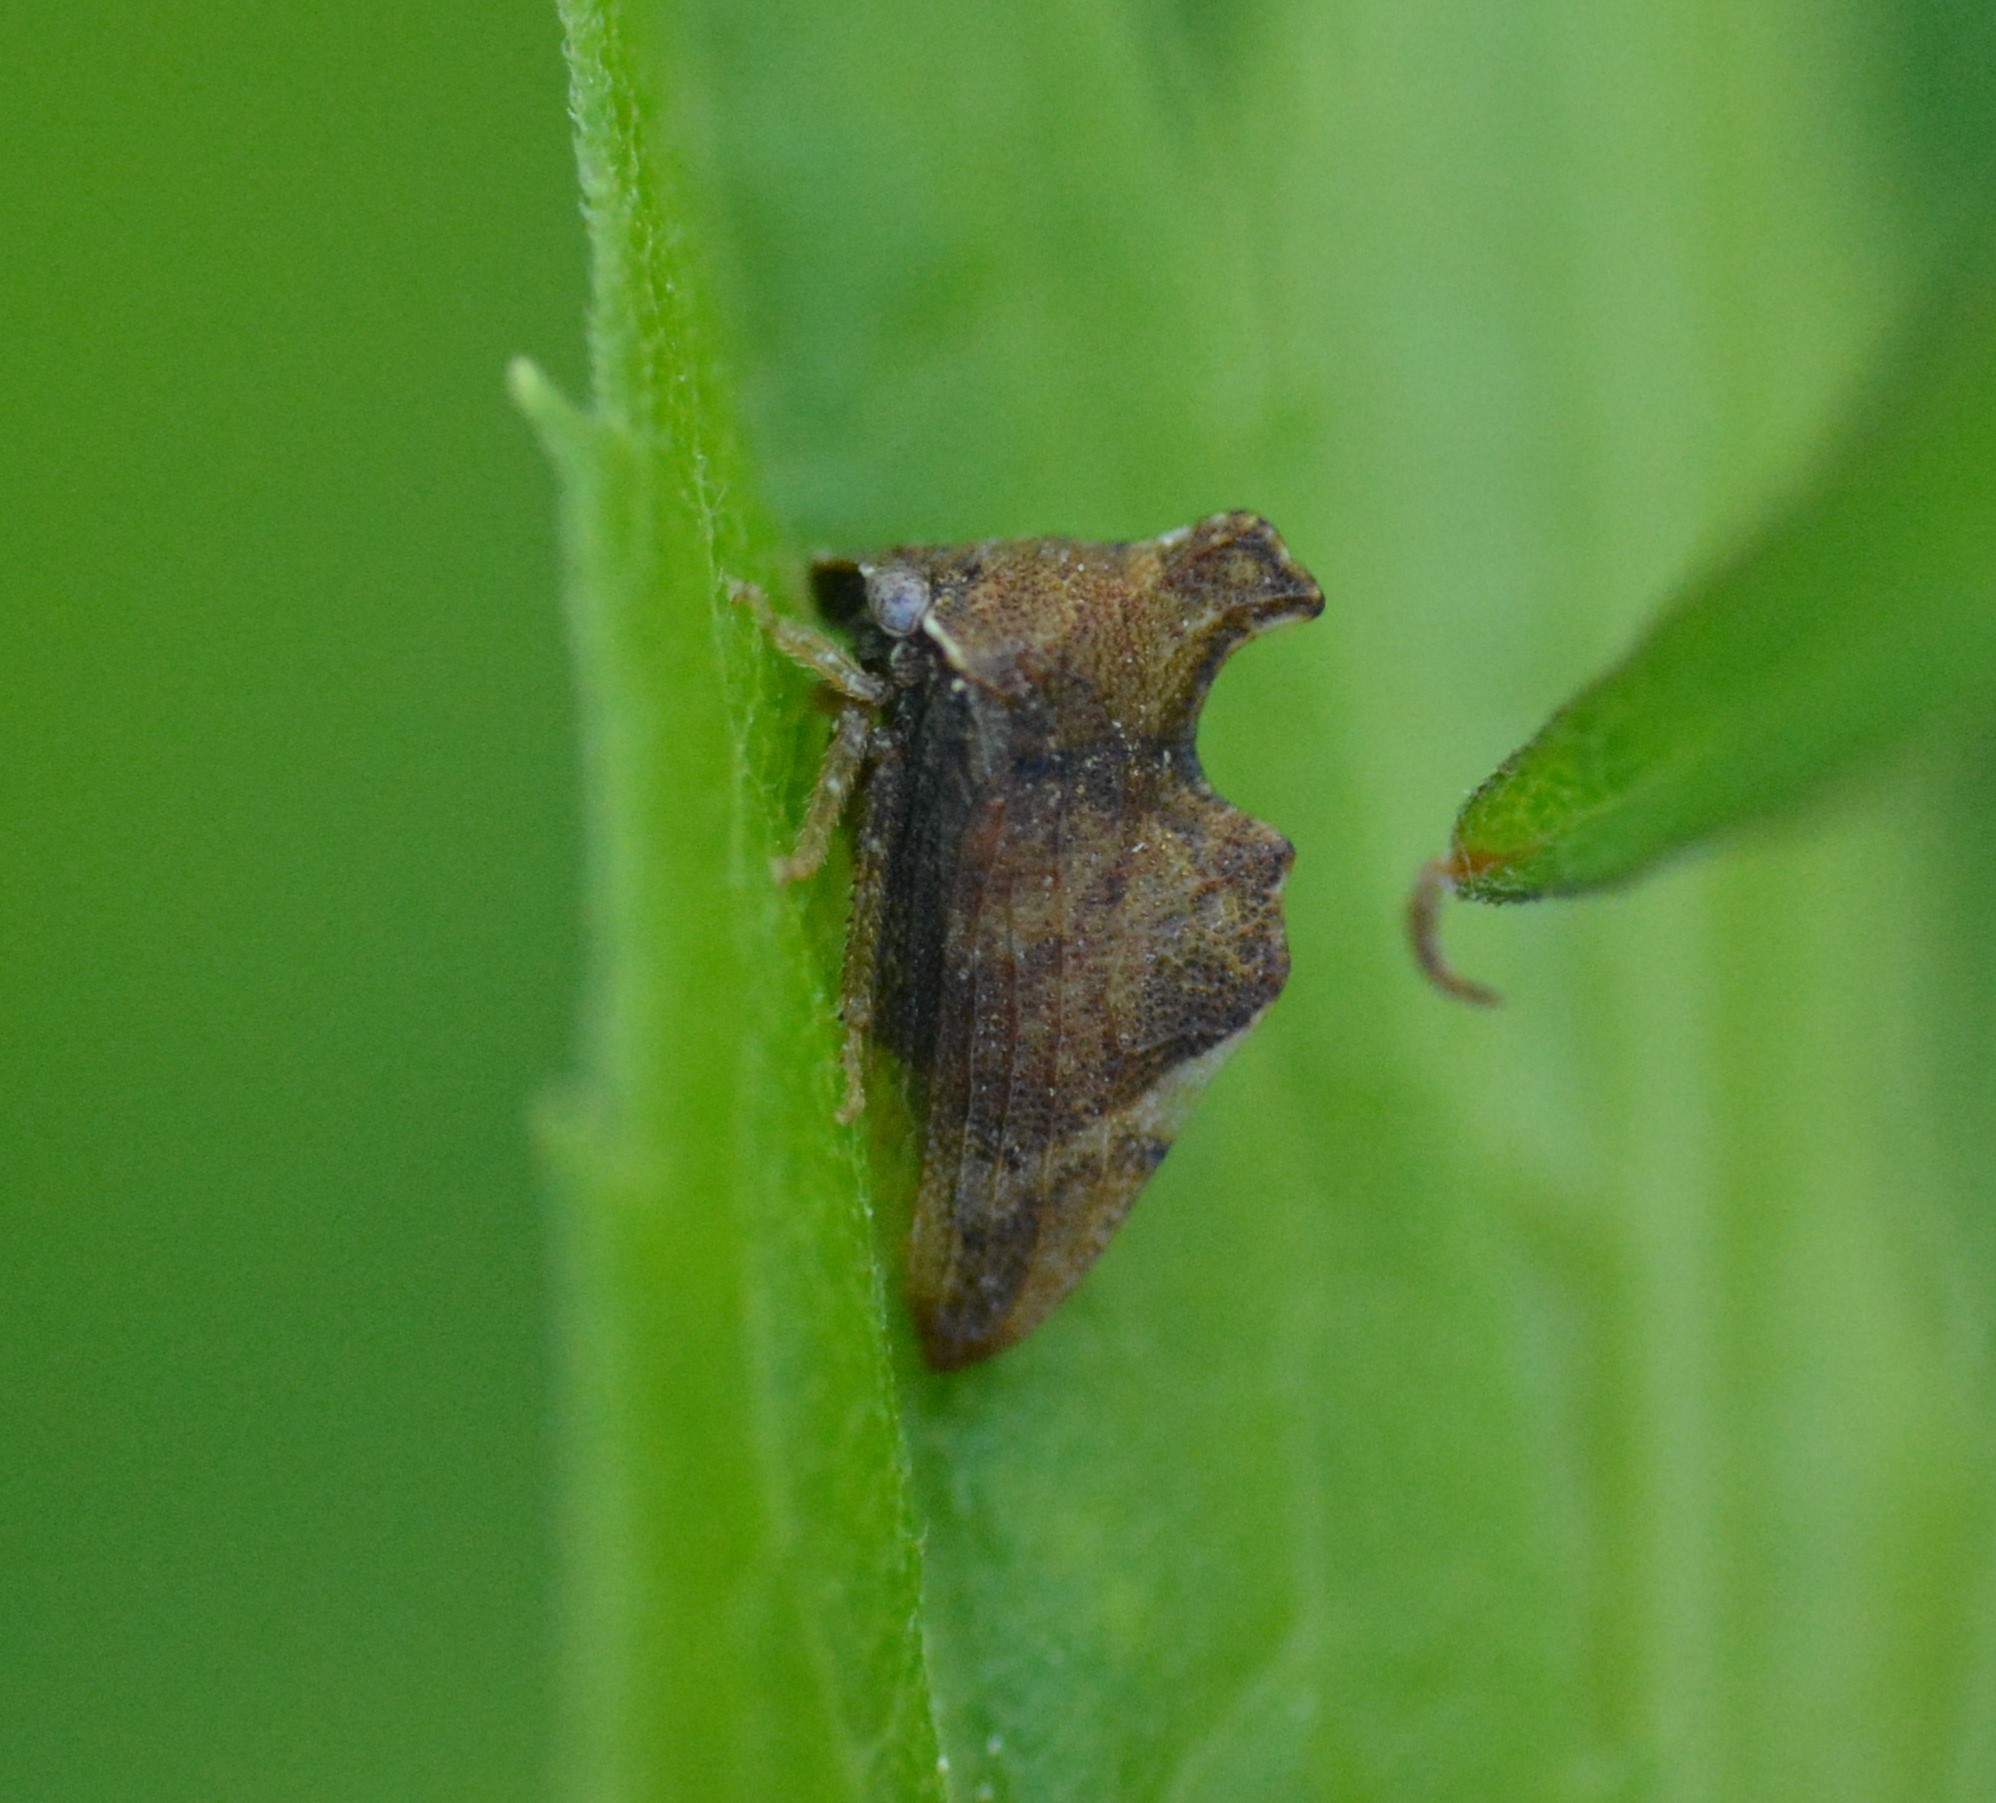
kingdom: Animalia
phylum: Arthropoda
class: Insecta
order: Hemiptera
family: Membracidae
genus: Entylia
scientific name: Entylia carinata
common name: Keeled treehopper
